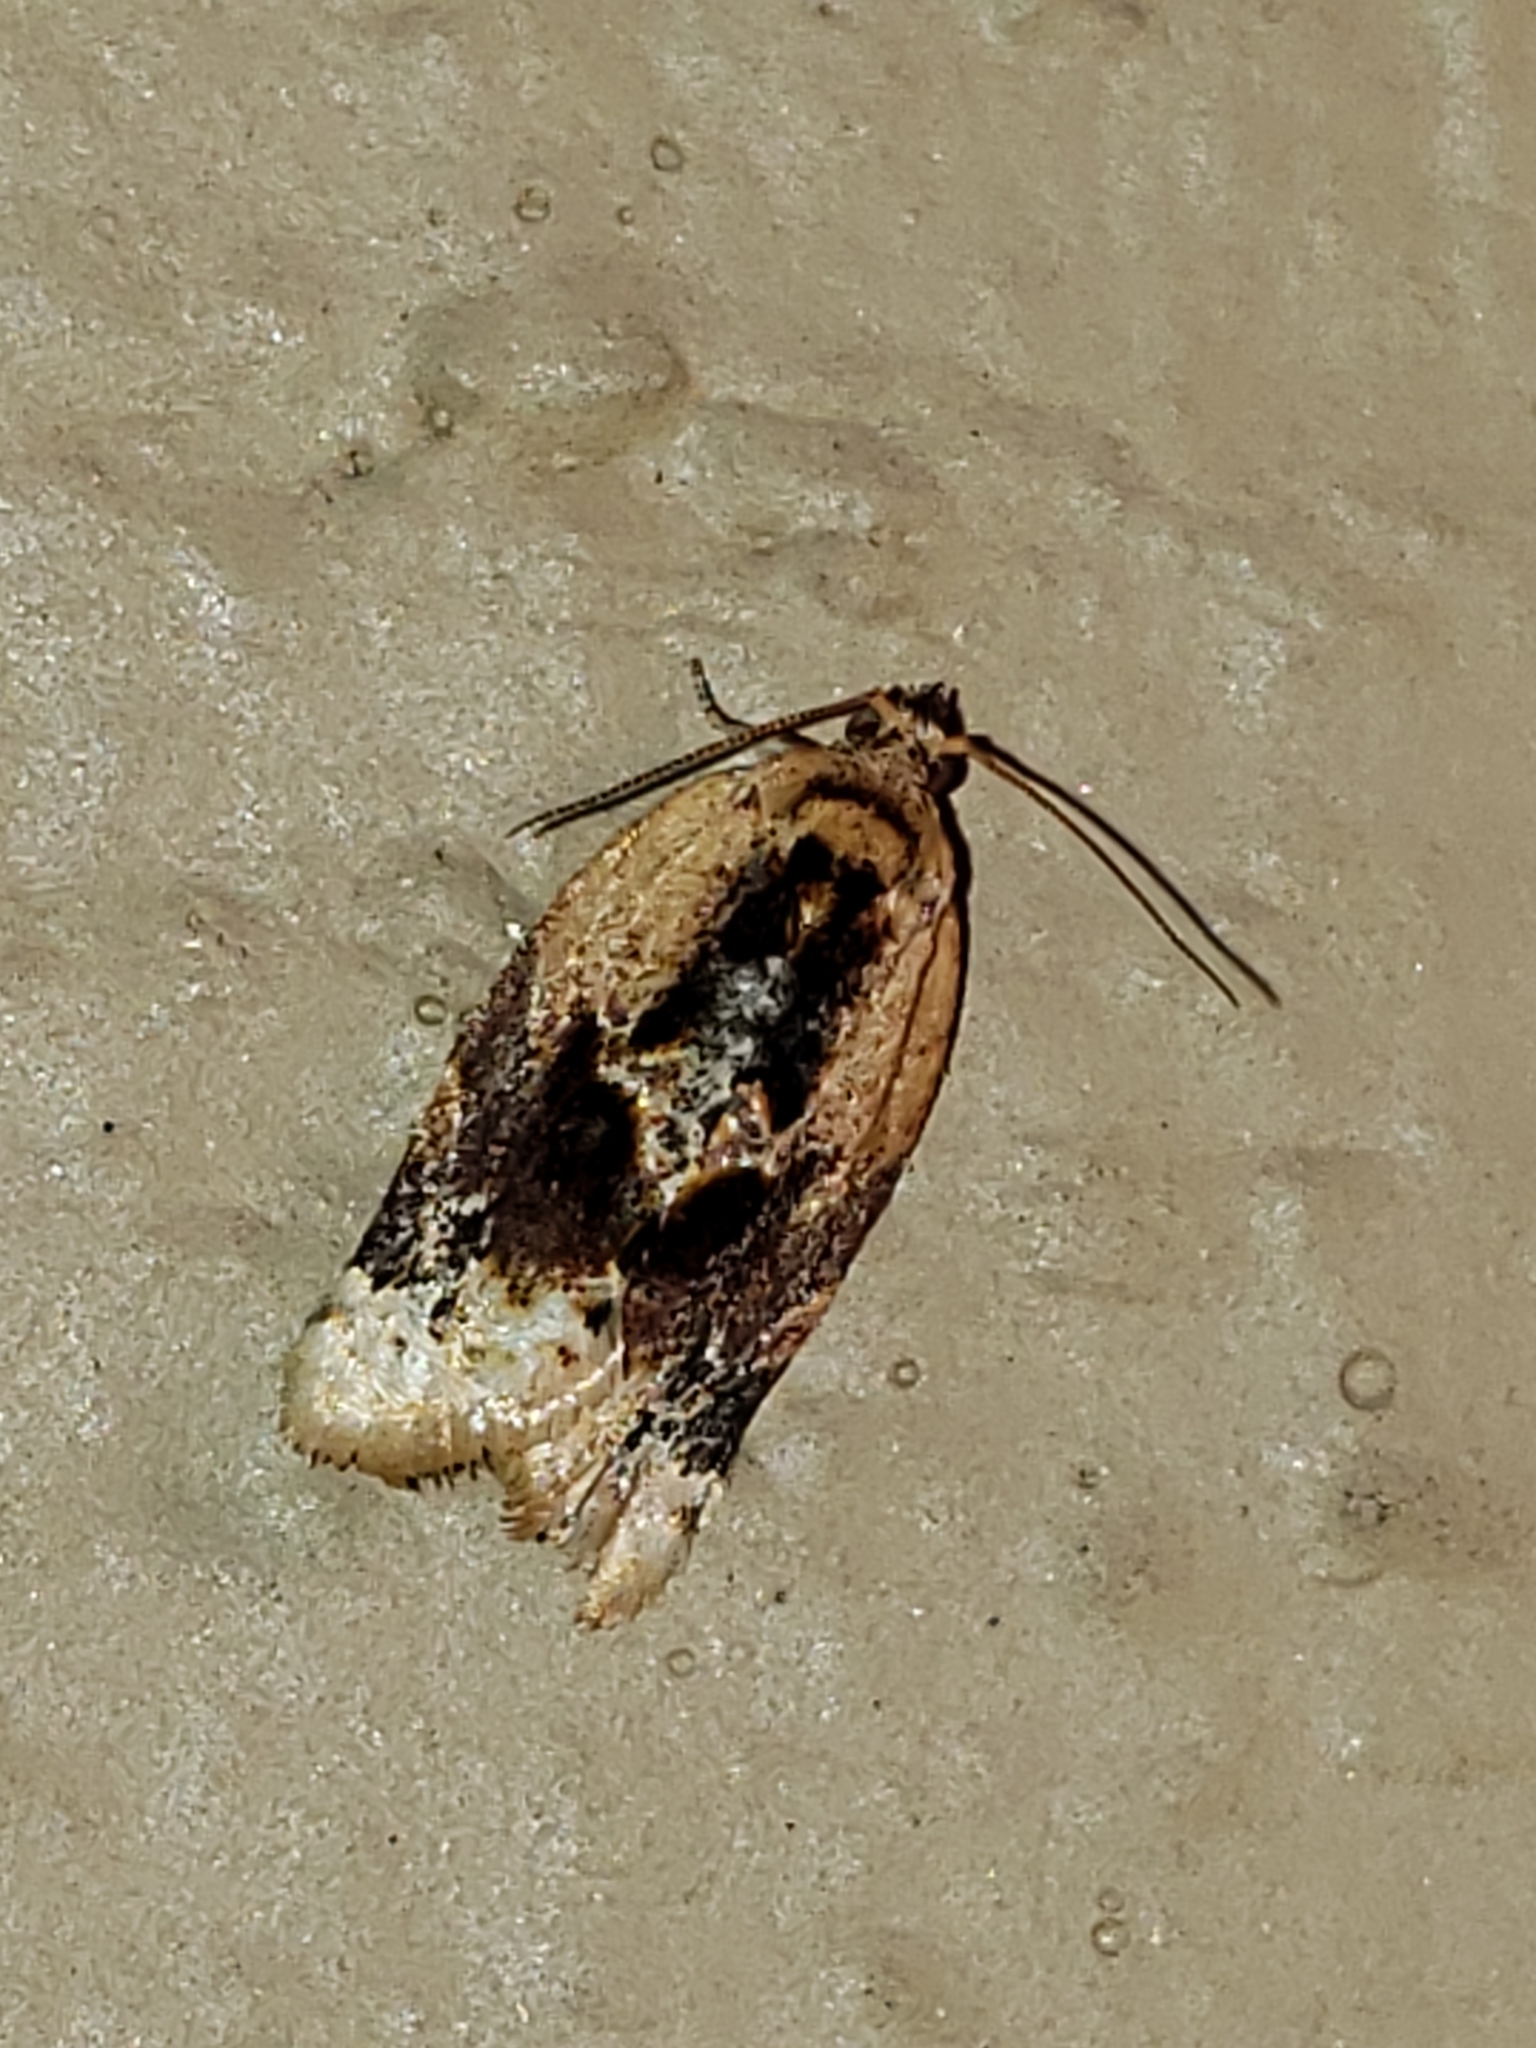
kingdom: Animalia
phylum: Arthropoda
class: Insecta
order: Lepidoptera
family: Tortricidae
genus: Argyrotaenia
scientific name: Argyrotaenia velutinana
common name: Red-banded leafroller moth
